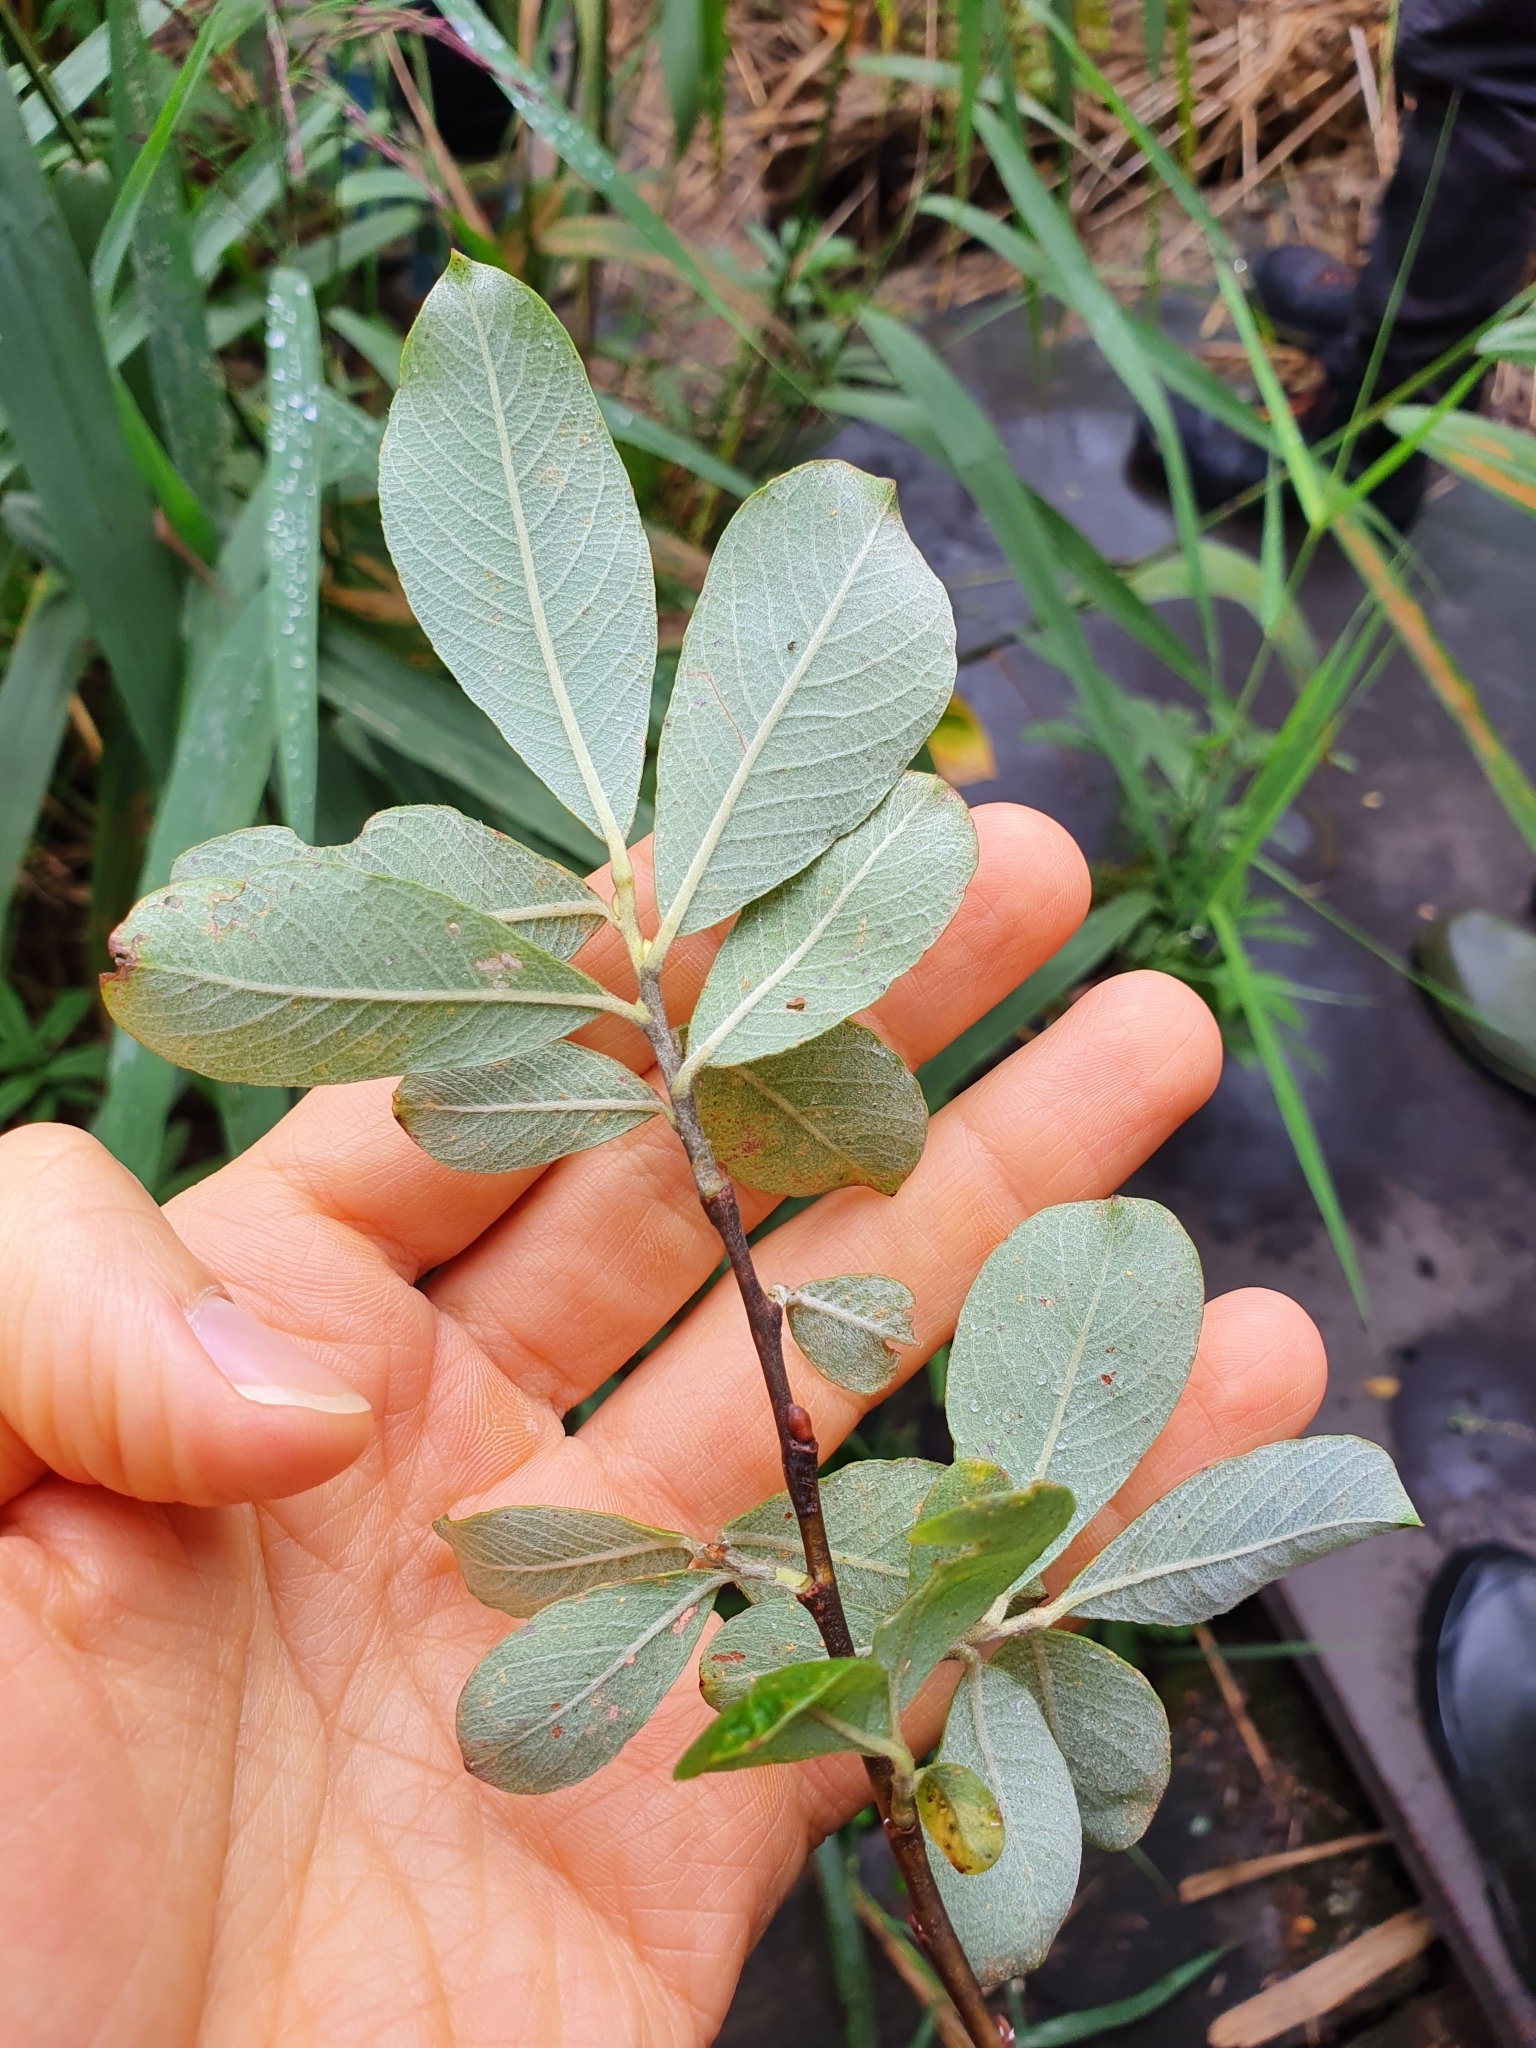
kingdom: Plantae
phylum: Tracheophyta
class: Magnoliopsida
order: Malpighiales
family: Salicaceae
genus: Salix
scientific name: Salix cinerea
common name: Common sallow
